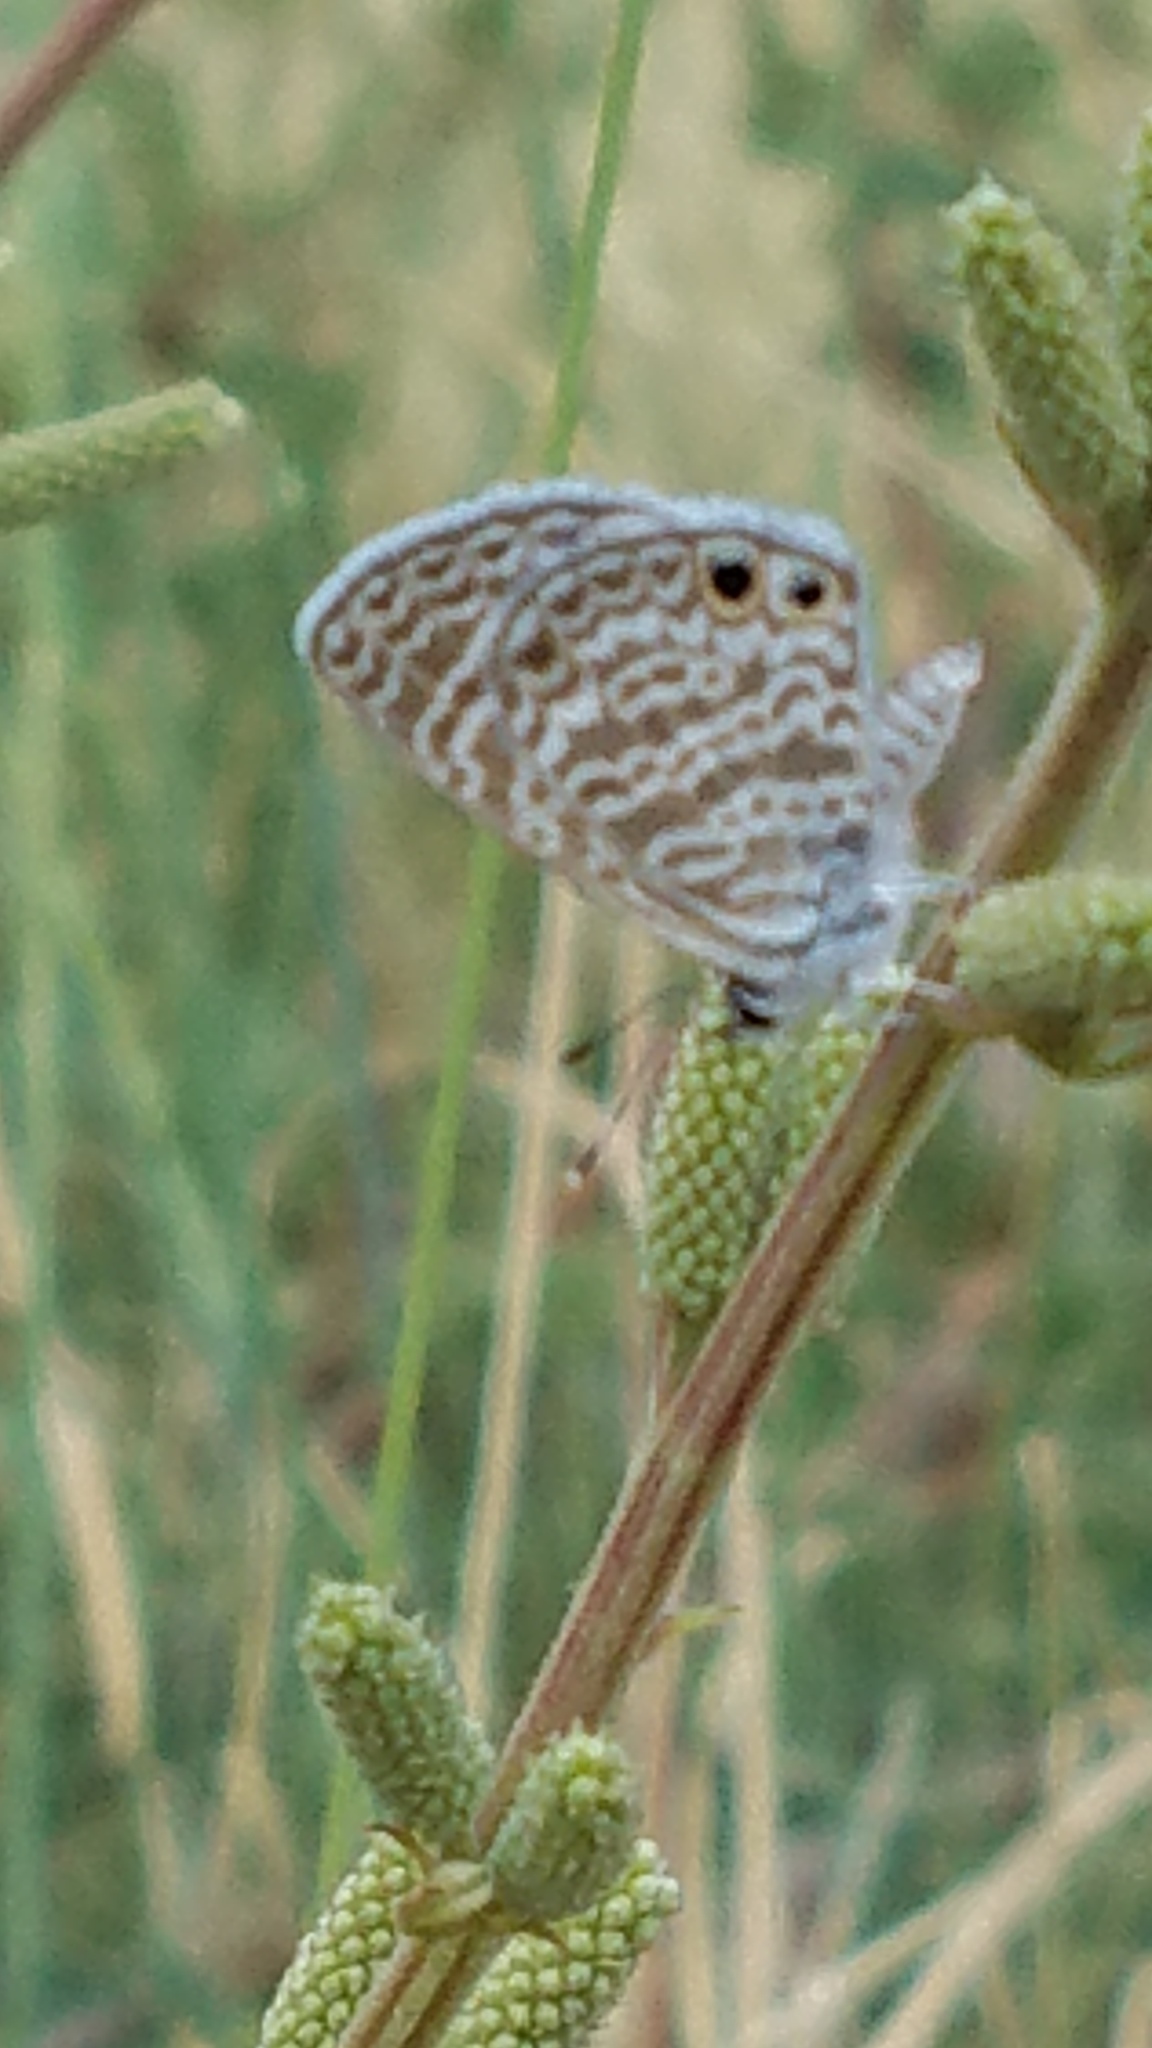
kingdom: Animalia
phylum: Arthropoda
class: Insecta
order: Lepidoptera
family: Lycaenidae
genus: Leptotes
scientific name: Leptotes marina
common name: Marine blue
